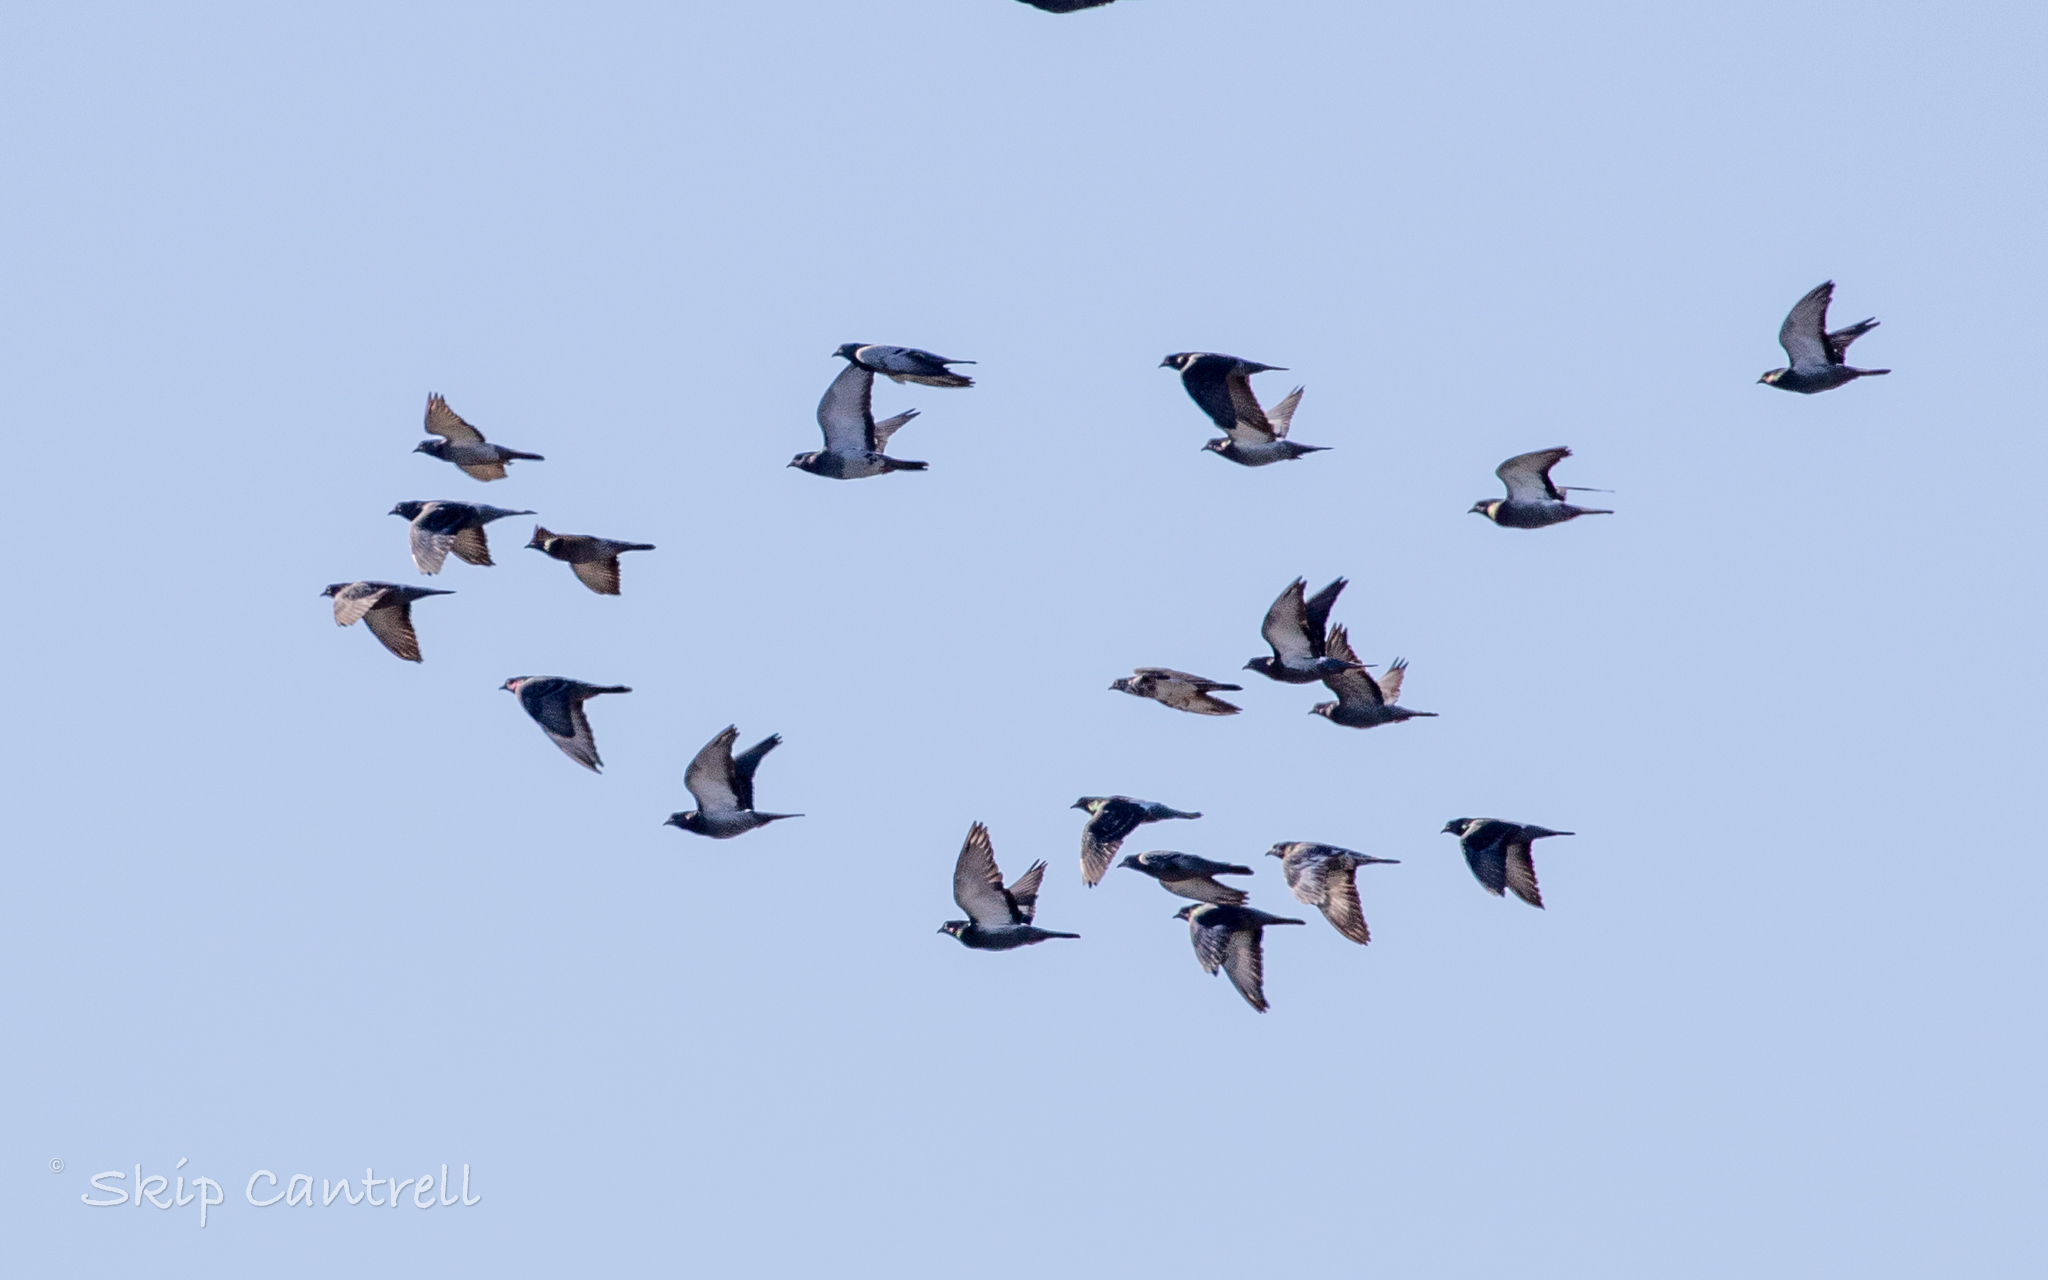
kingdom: Animalia
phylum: Chordata
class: Aves
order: Columbiformes
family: Columbidae
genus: Columba
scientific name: Columba livia
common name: Rock pigeon
